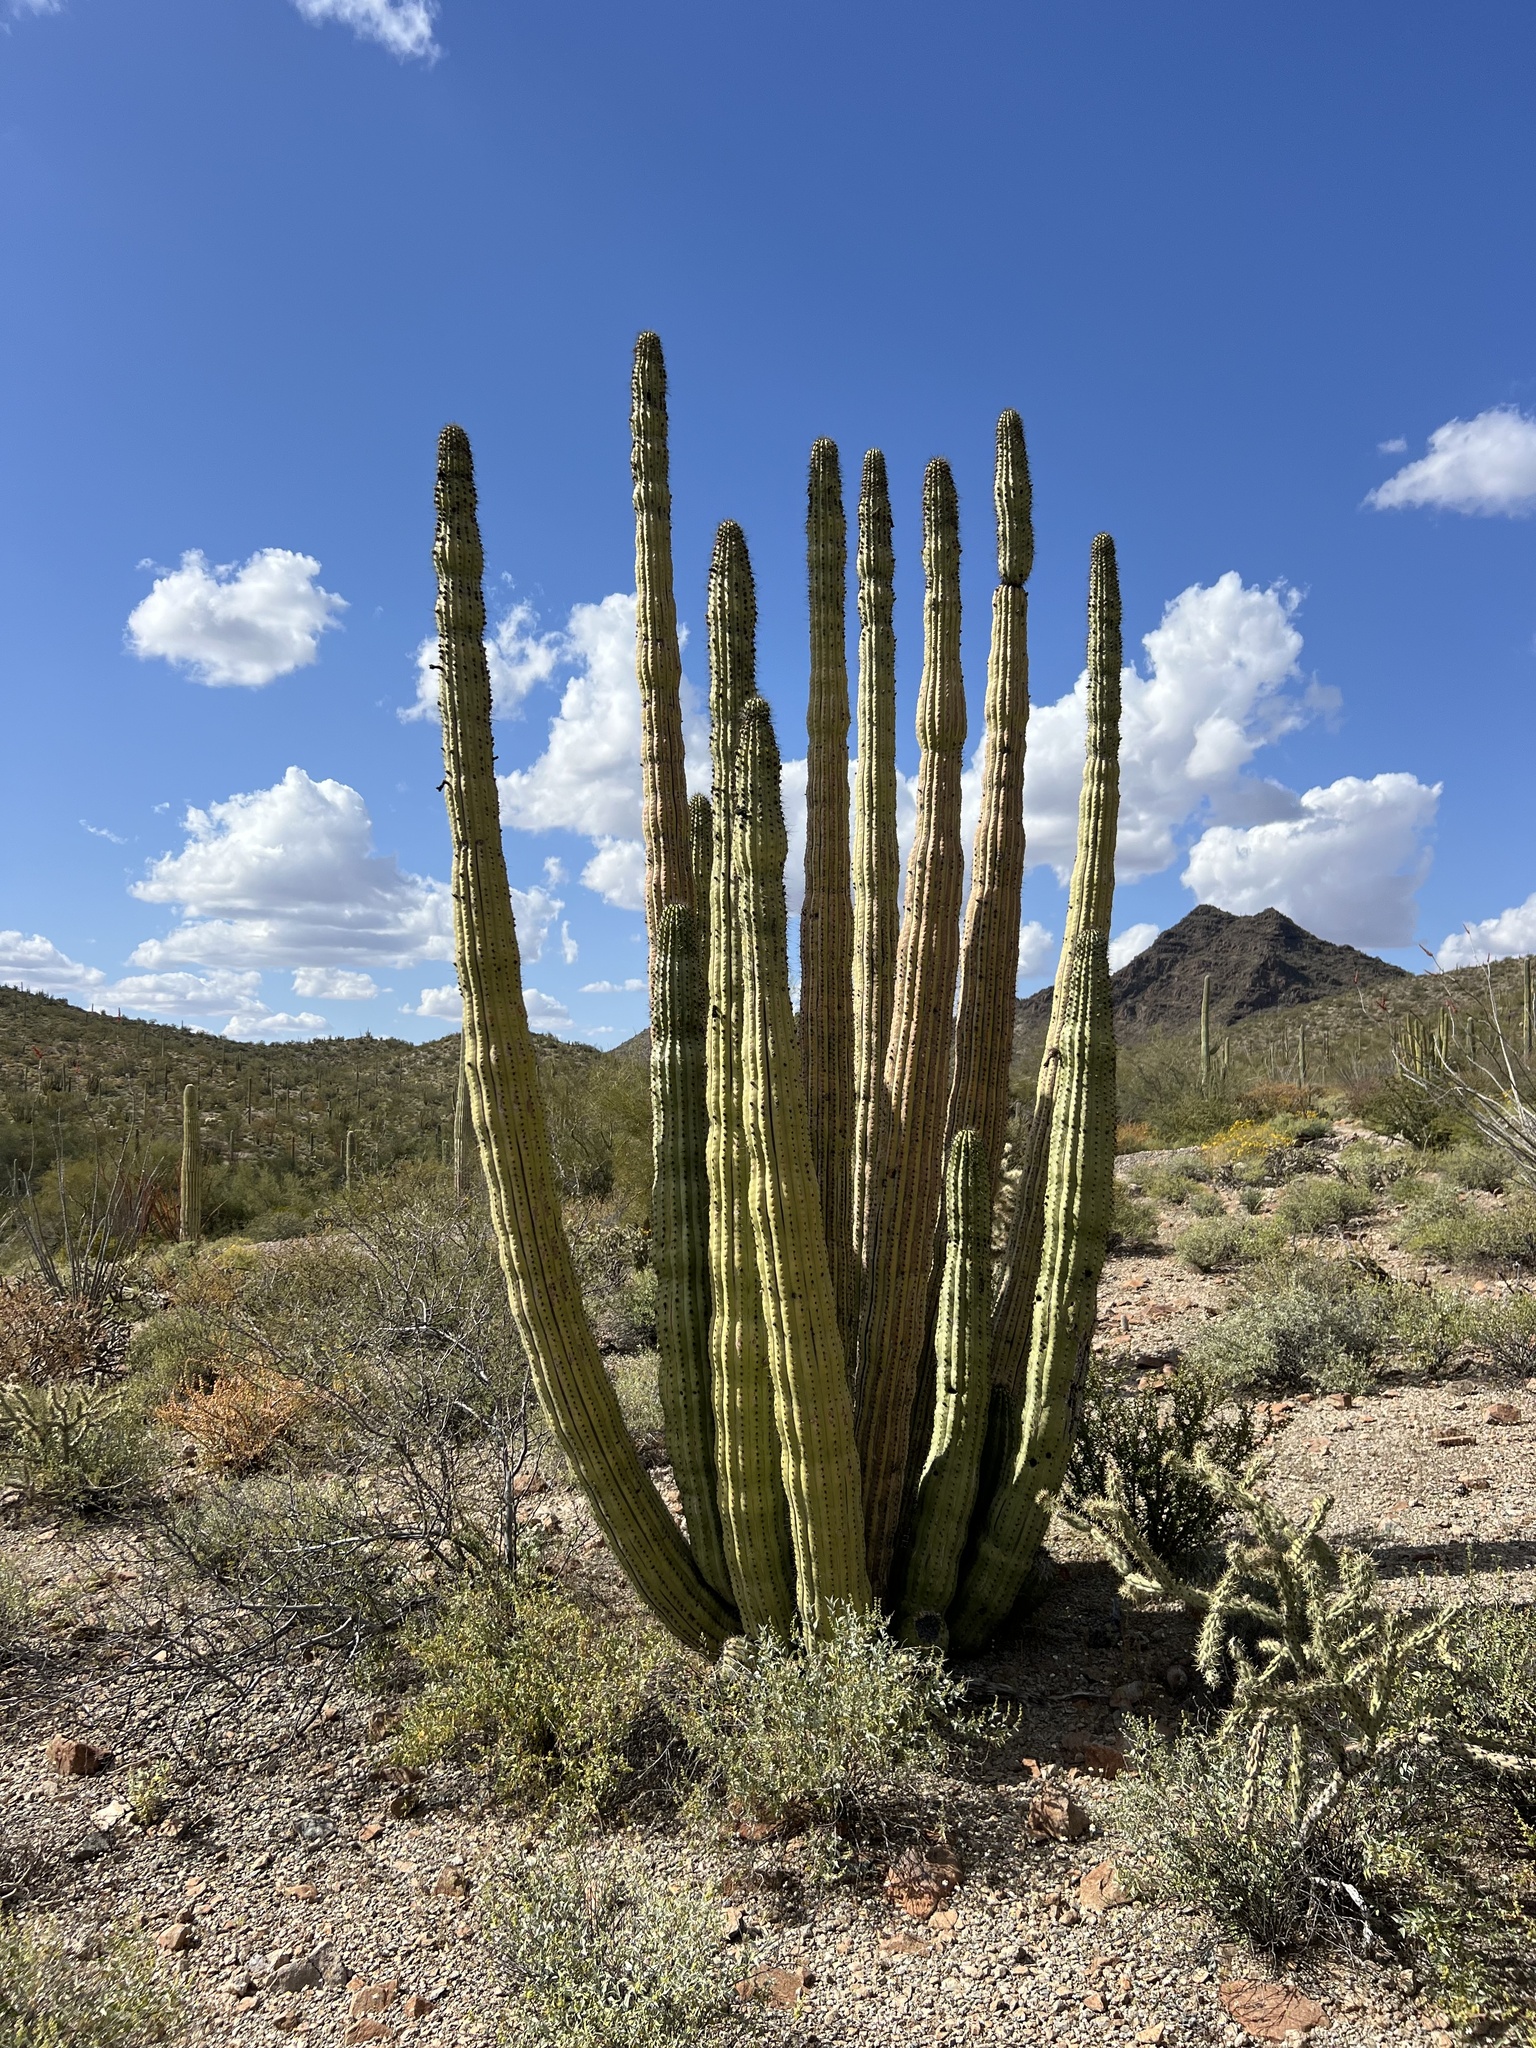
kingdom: Plantae
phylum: Tracheophyta
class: Magnoliopsida
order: Caryophyllales
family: Cactaceae
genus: Stenocereus
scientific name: Stenocereus thurberi
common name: Organ pipe cactus
